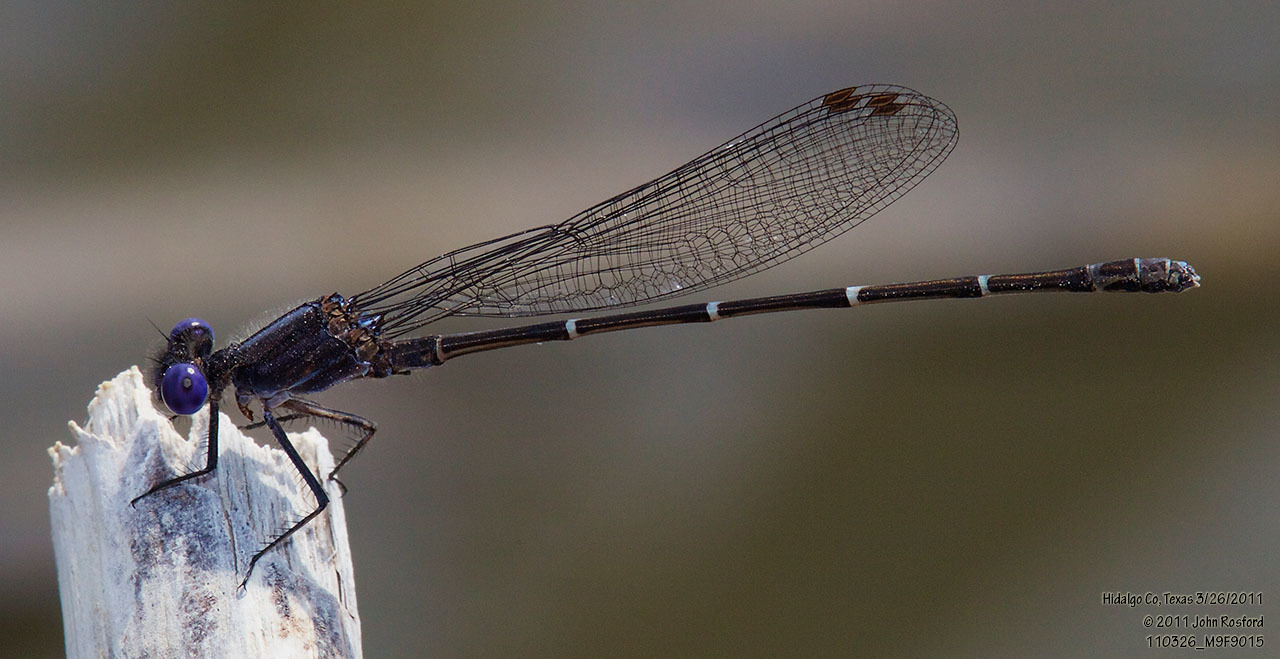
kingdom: Animalia
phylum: Arthropoda
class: Insecta
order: Odonata
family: Coenagrionidae
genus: Argia
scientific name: Argia translata
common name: Dusky dancer
